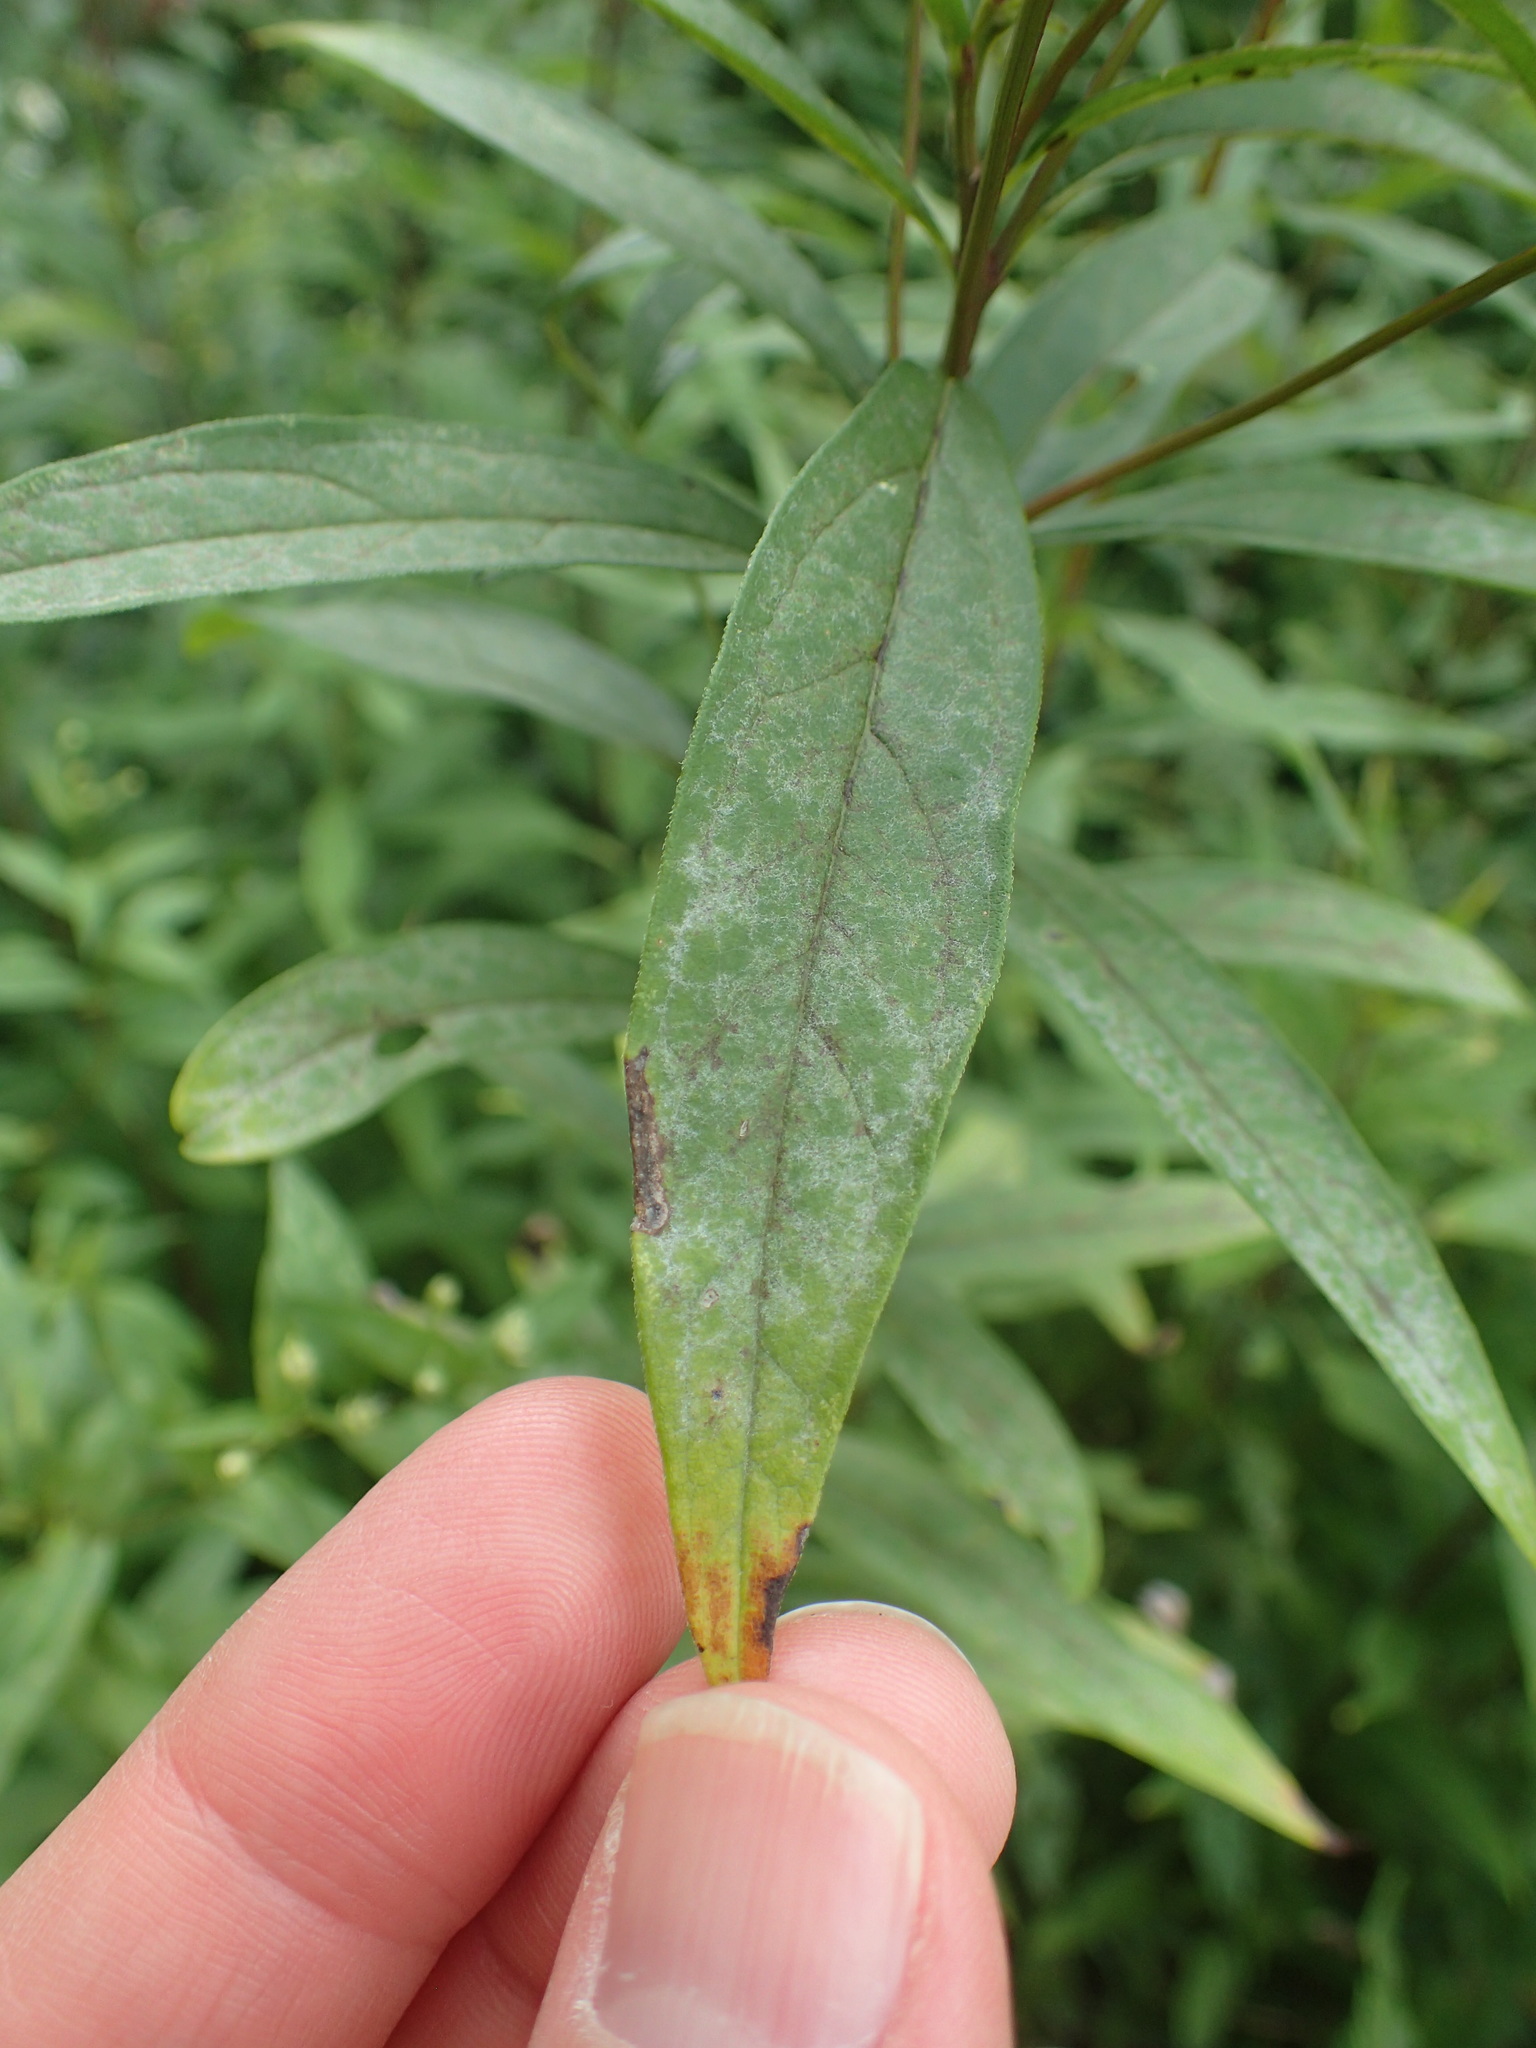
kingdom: Plantae
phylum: Tracheophyta
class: Magnoliopsida
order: Asterales
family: Asteraceae
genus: Doellingeria
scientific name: Doellingeria umbellata
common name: Flat-top white aster
